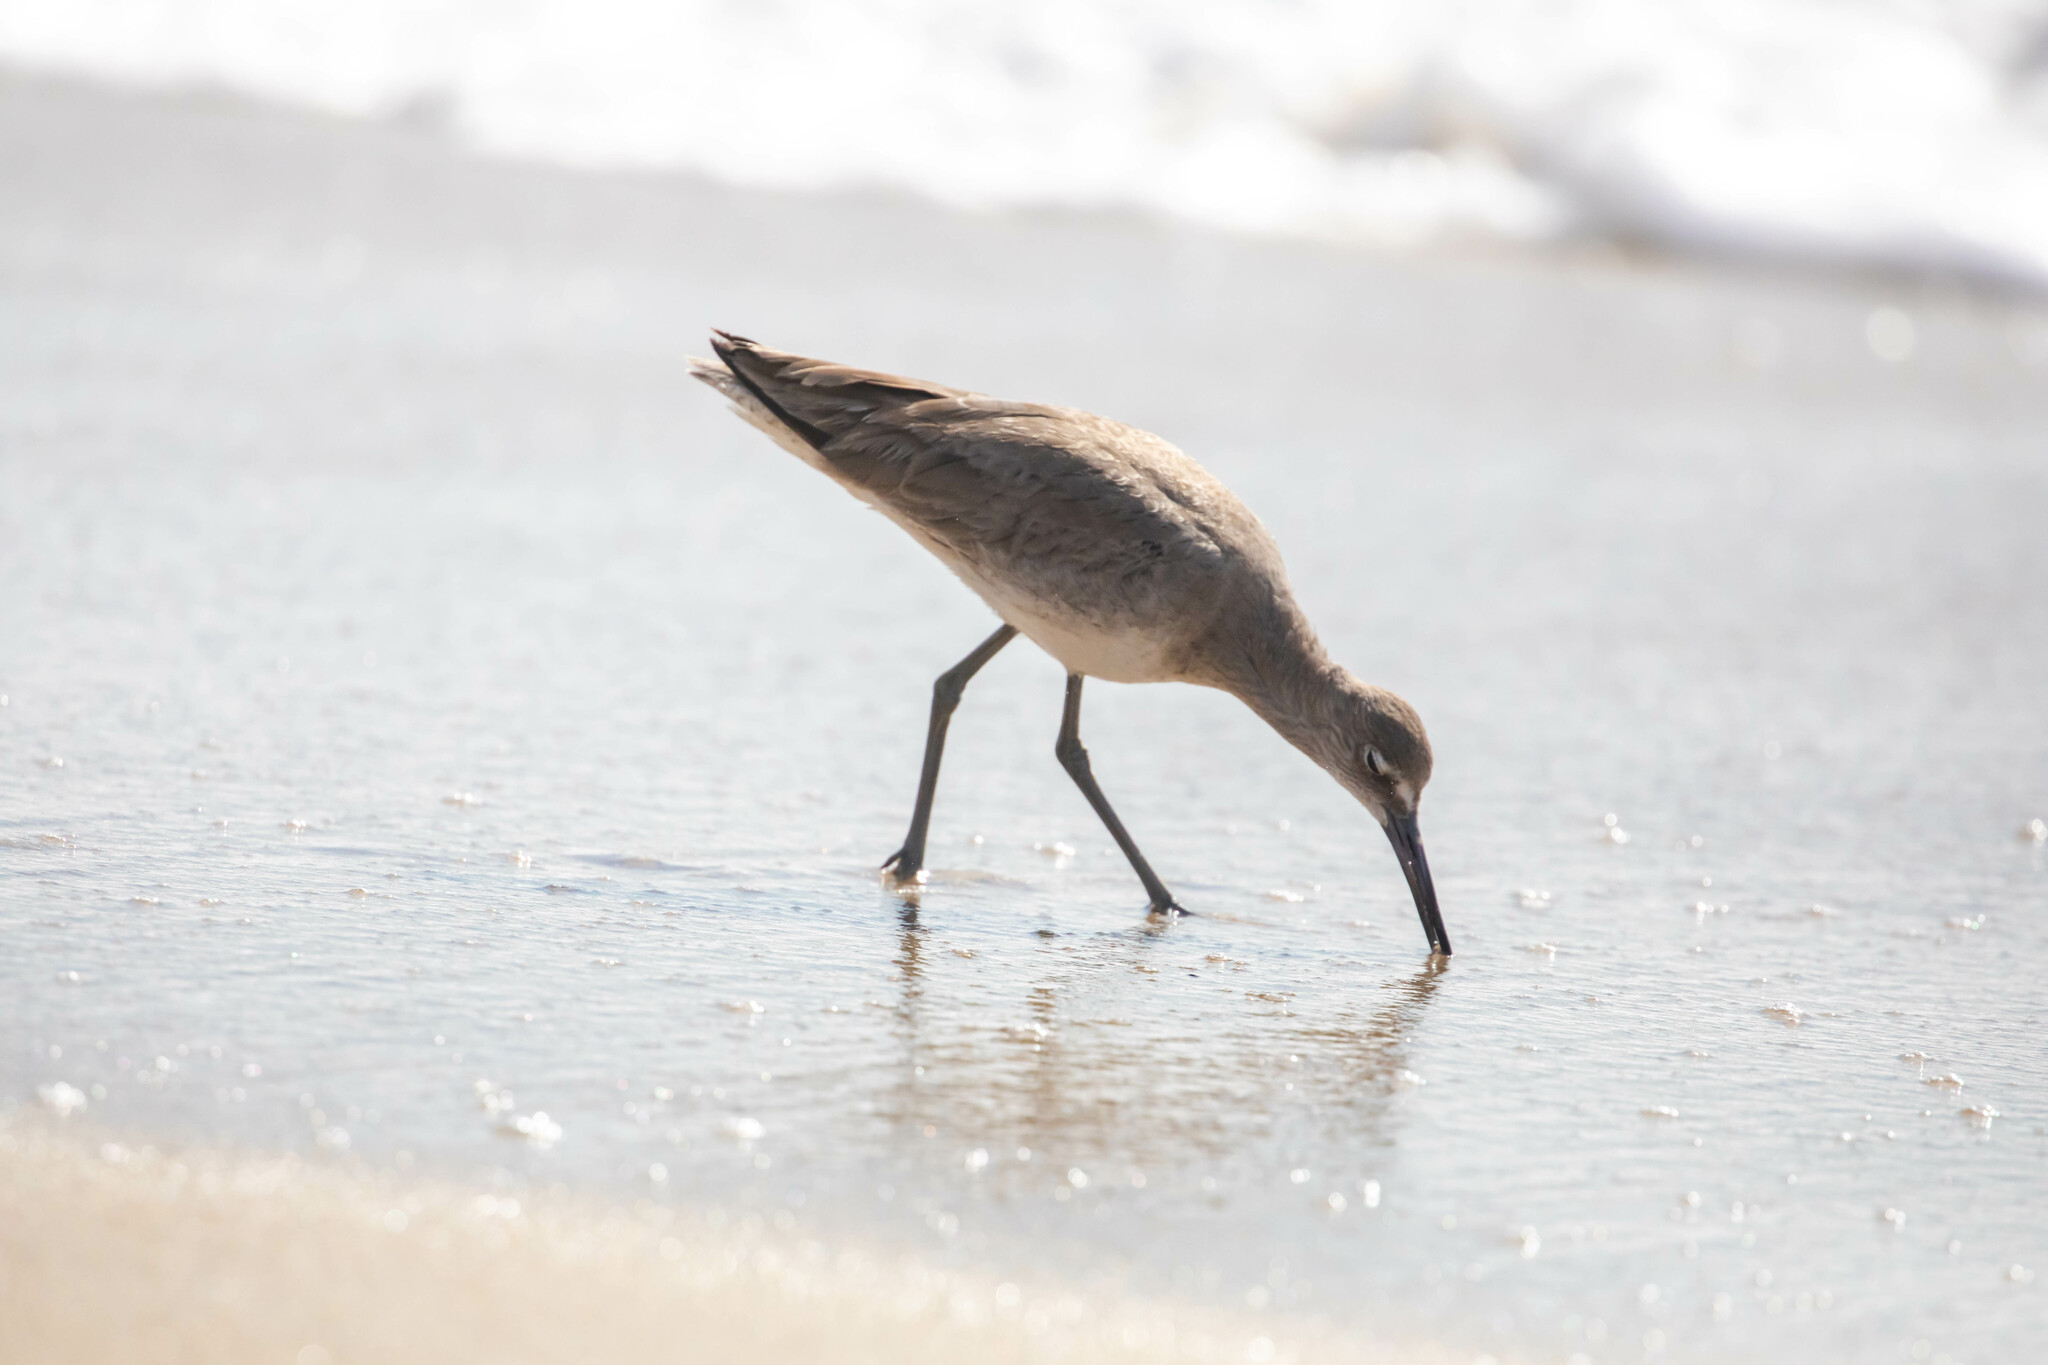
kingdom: Animalia
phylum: Chordata
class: Aves
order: Charadriiformes
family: Scolopacidae
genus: Tringa
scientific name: Tringa semipalmata
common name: Willet
